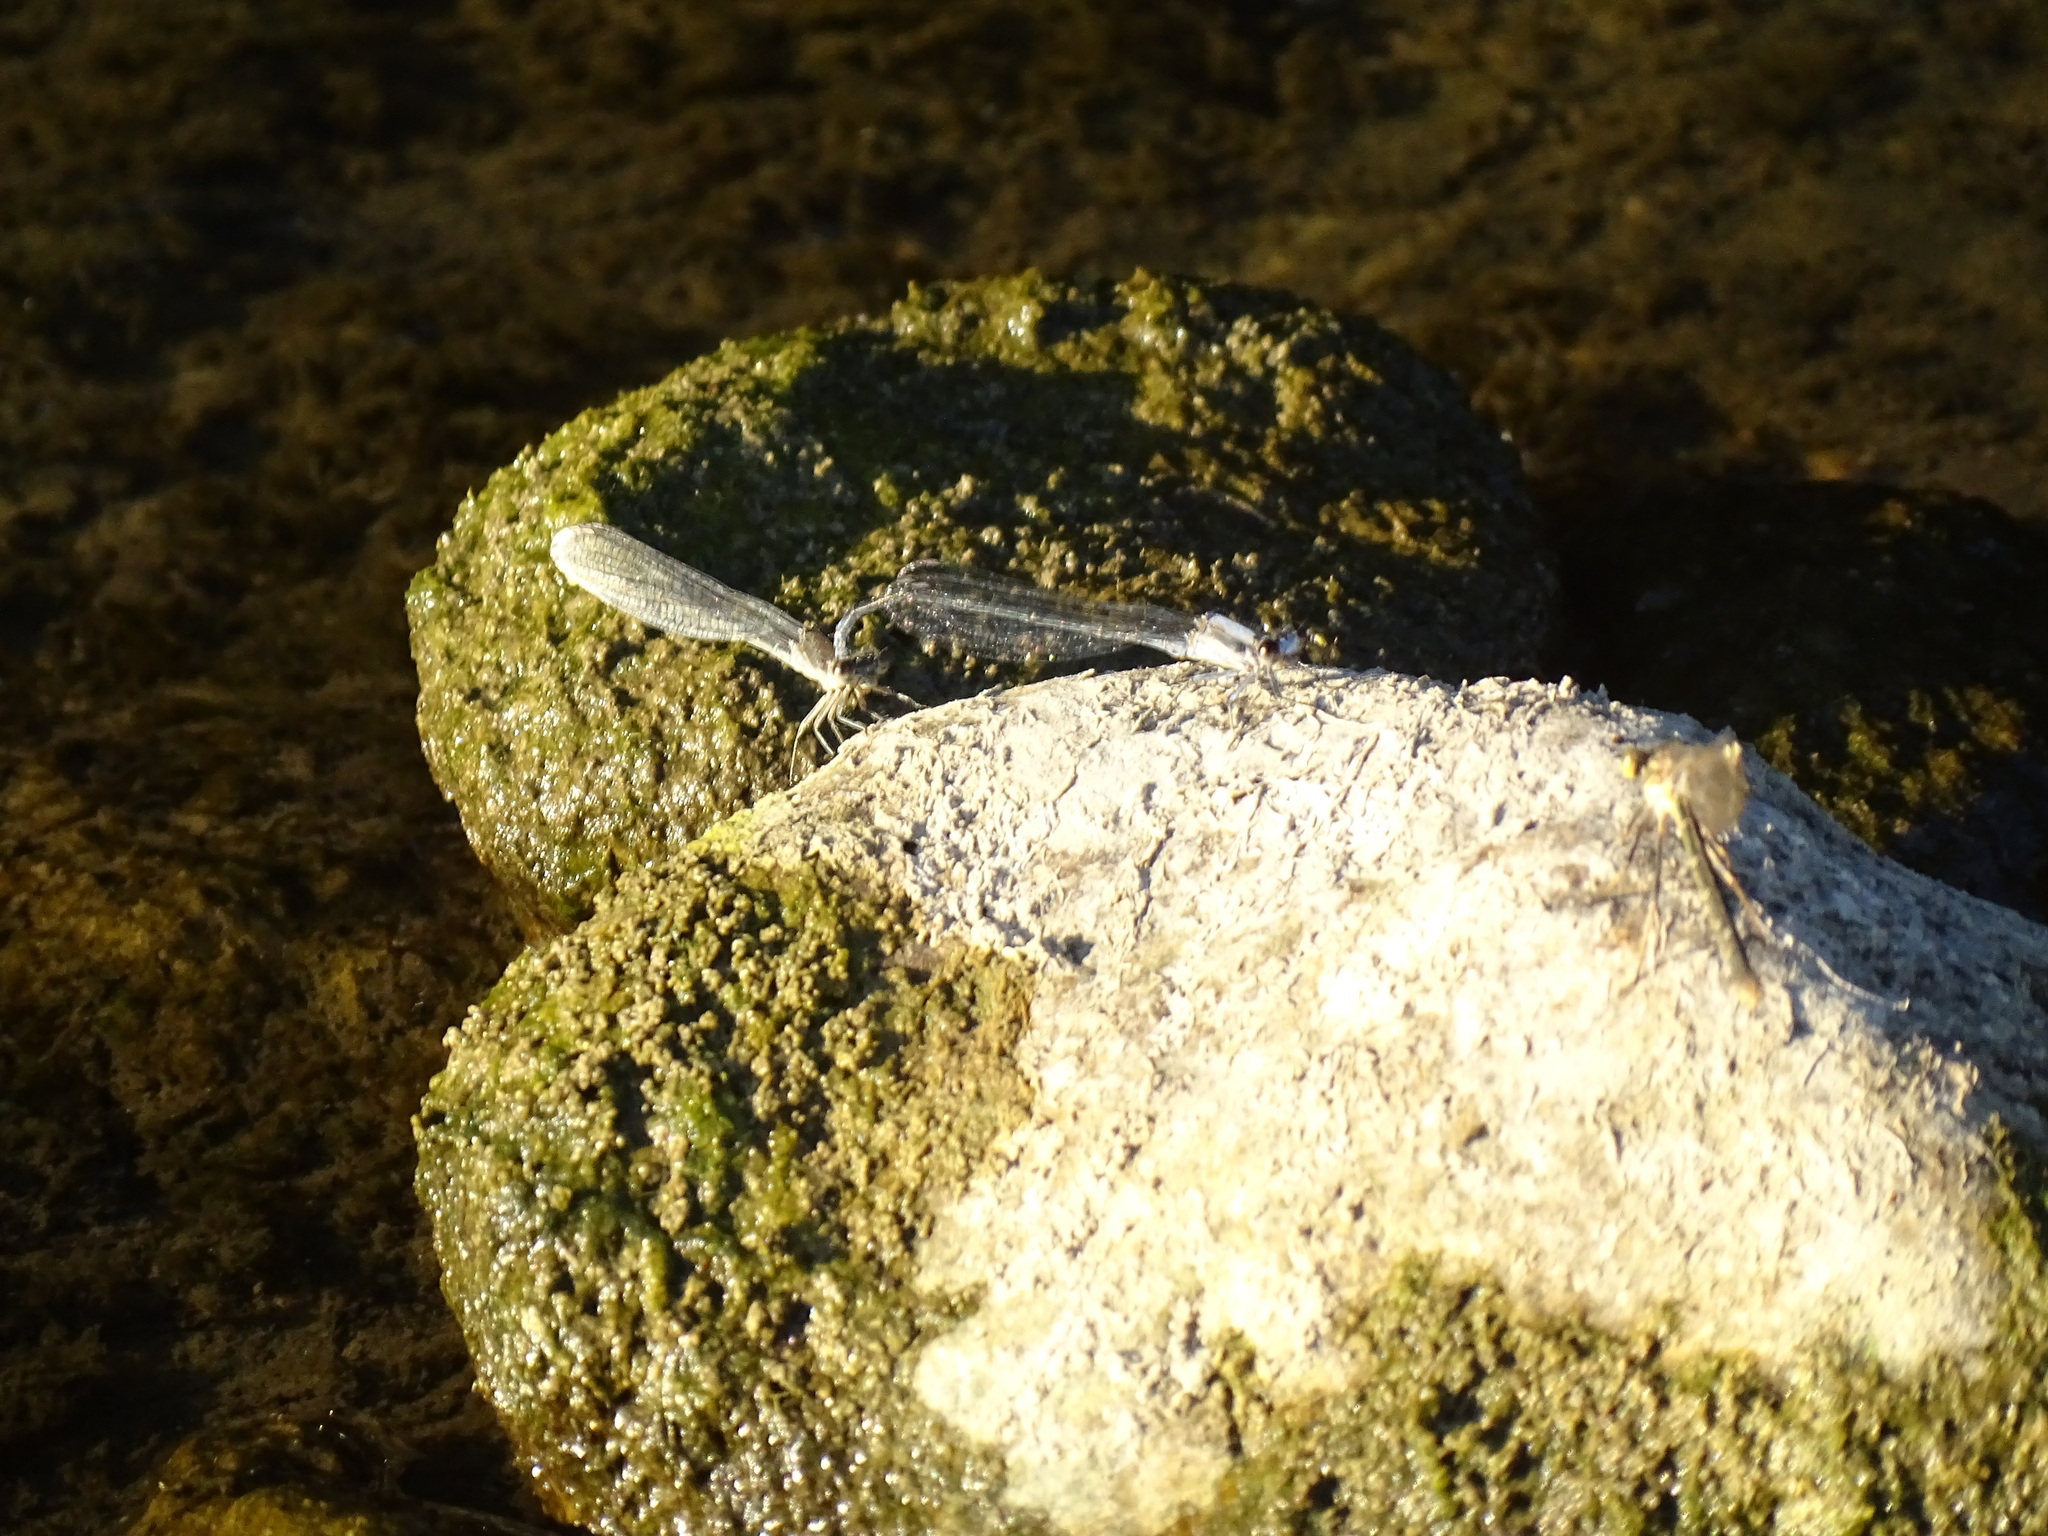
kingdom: Animalia
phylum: Arthropoda
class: Insecta
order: Odonata
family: Coenagrionidae
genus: Argia
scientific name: Argia moesta
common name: Powdered dancer
